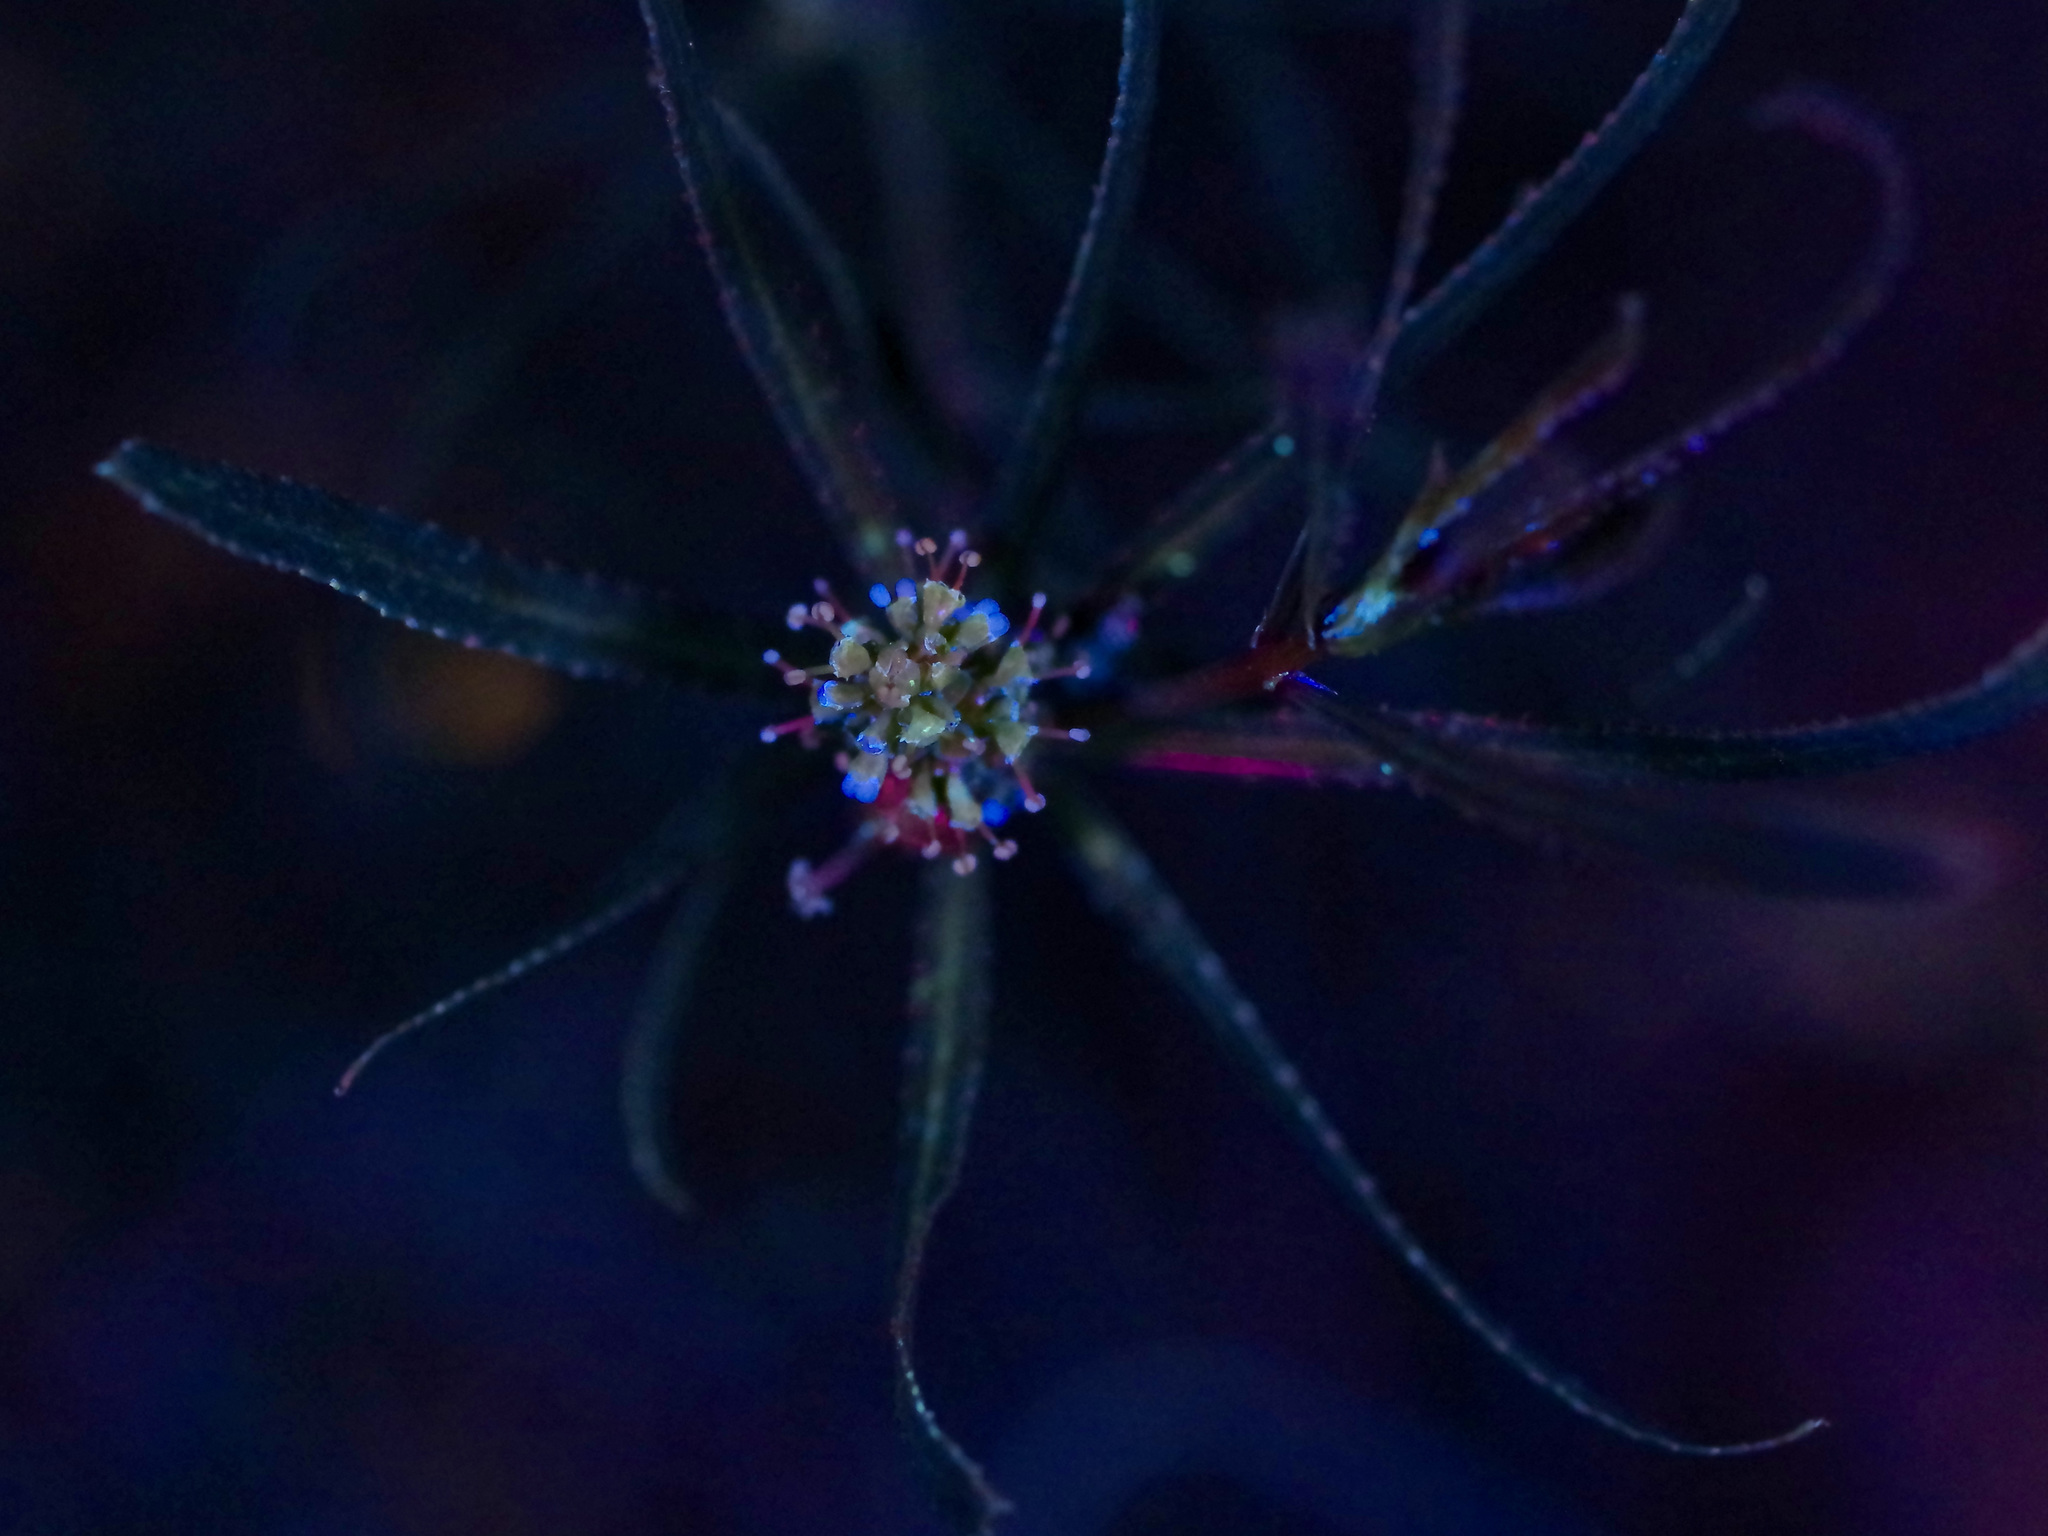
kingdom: Plantae
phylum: Tracheophyta
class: Magnoliopsida
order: Malpighiales
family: Euphorbiaceae
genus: Stillingia
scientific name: Stillingia texana
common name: Texas stillingia
